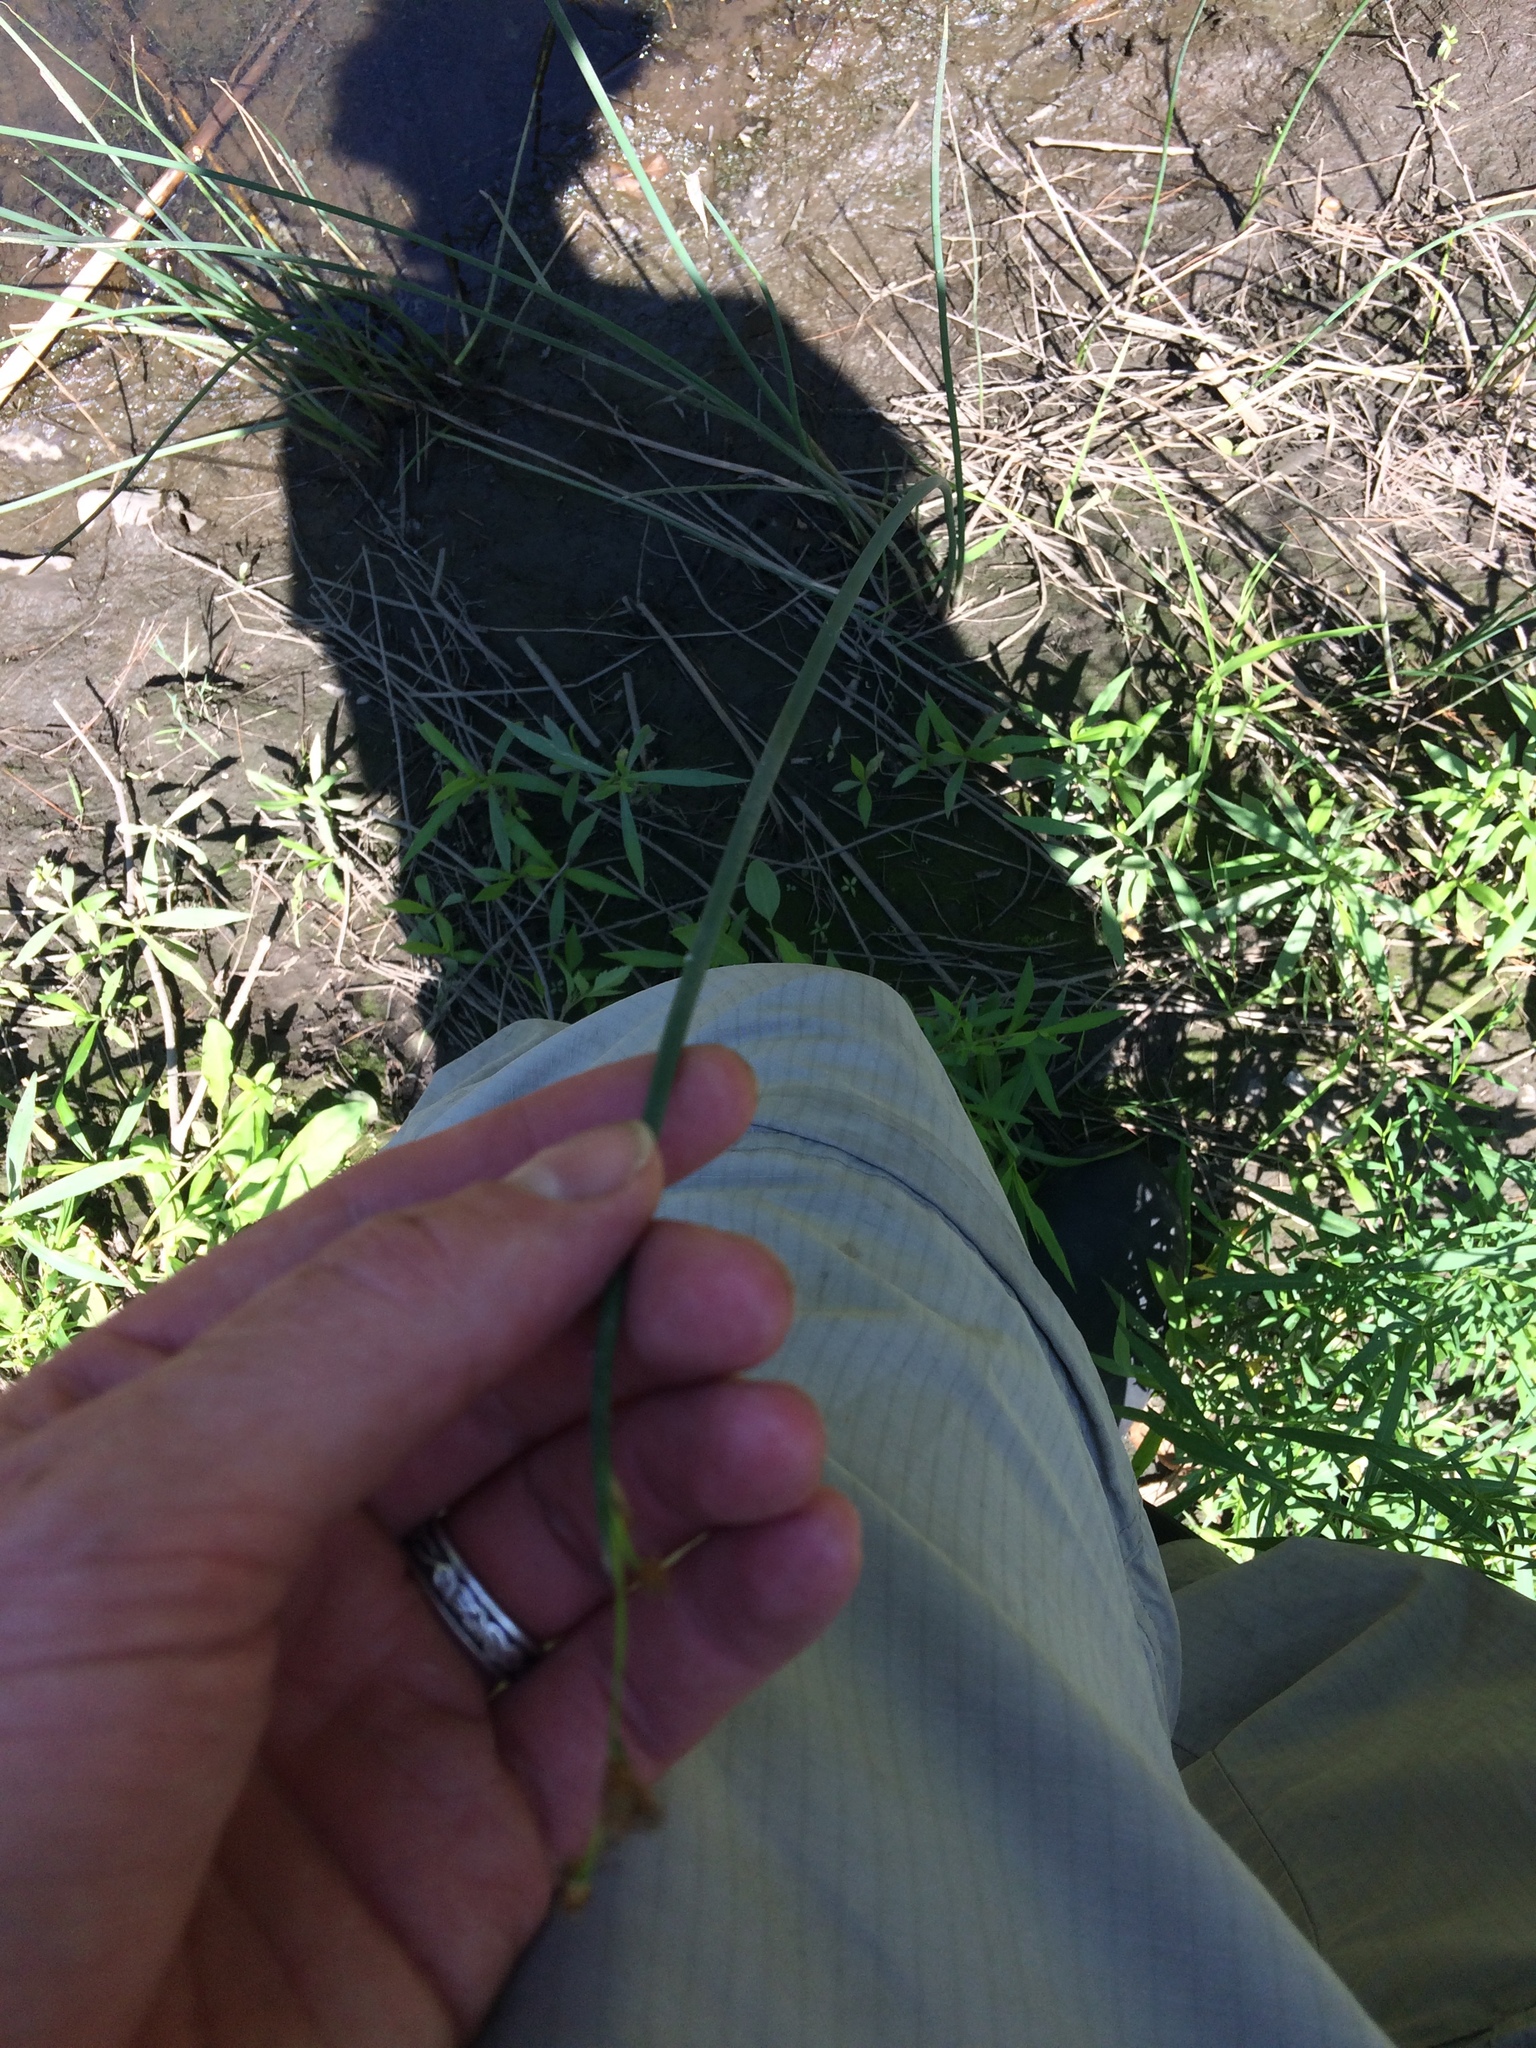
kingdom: Plantae
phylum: Tracheophyta
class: Liliopsida
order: Poales
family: Cyperaceae
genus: Schoenoplectus
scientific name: Schoenoplectus tabernaemontani
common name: Grey club-rush
